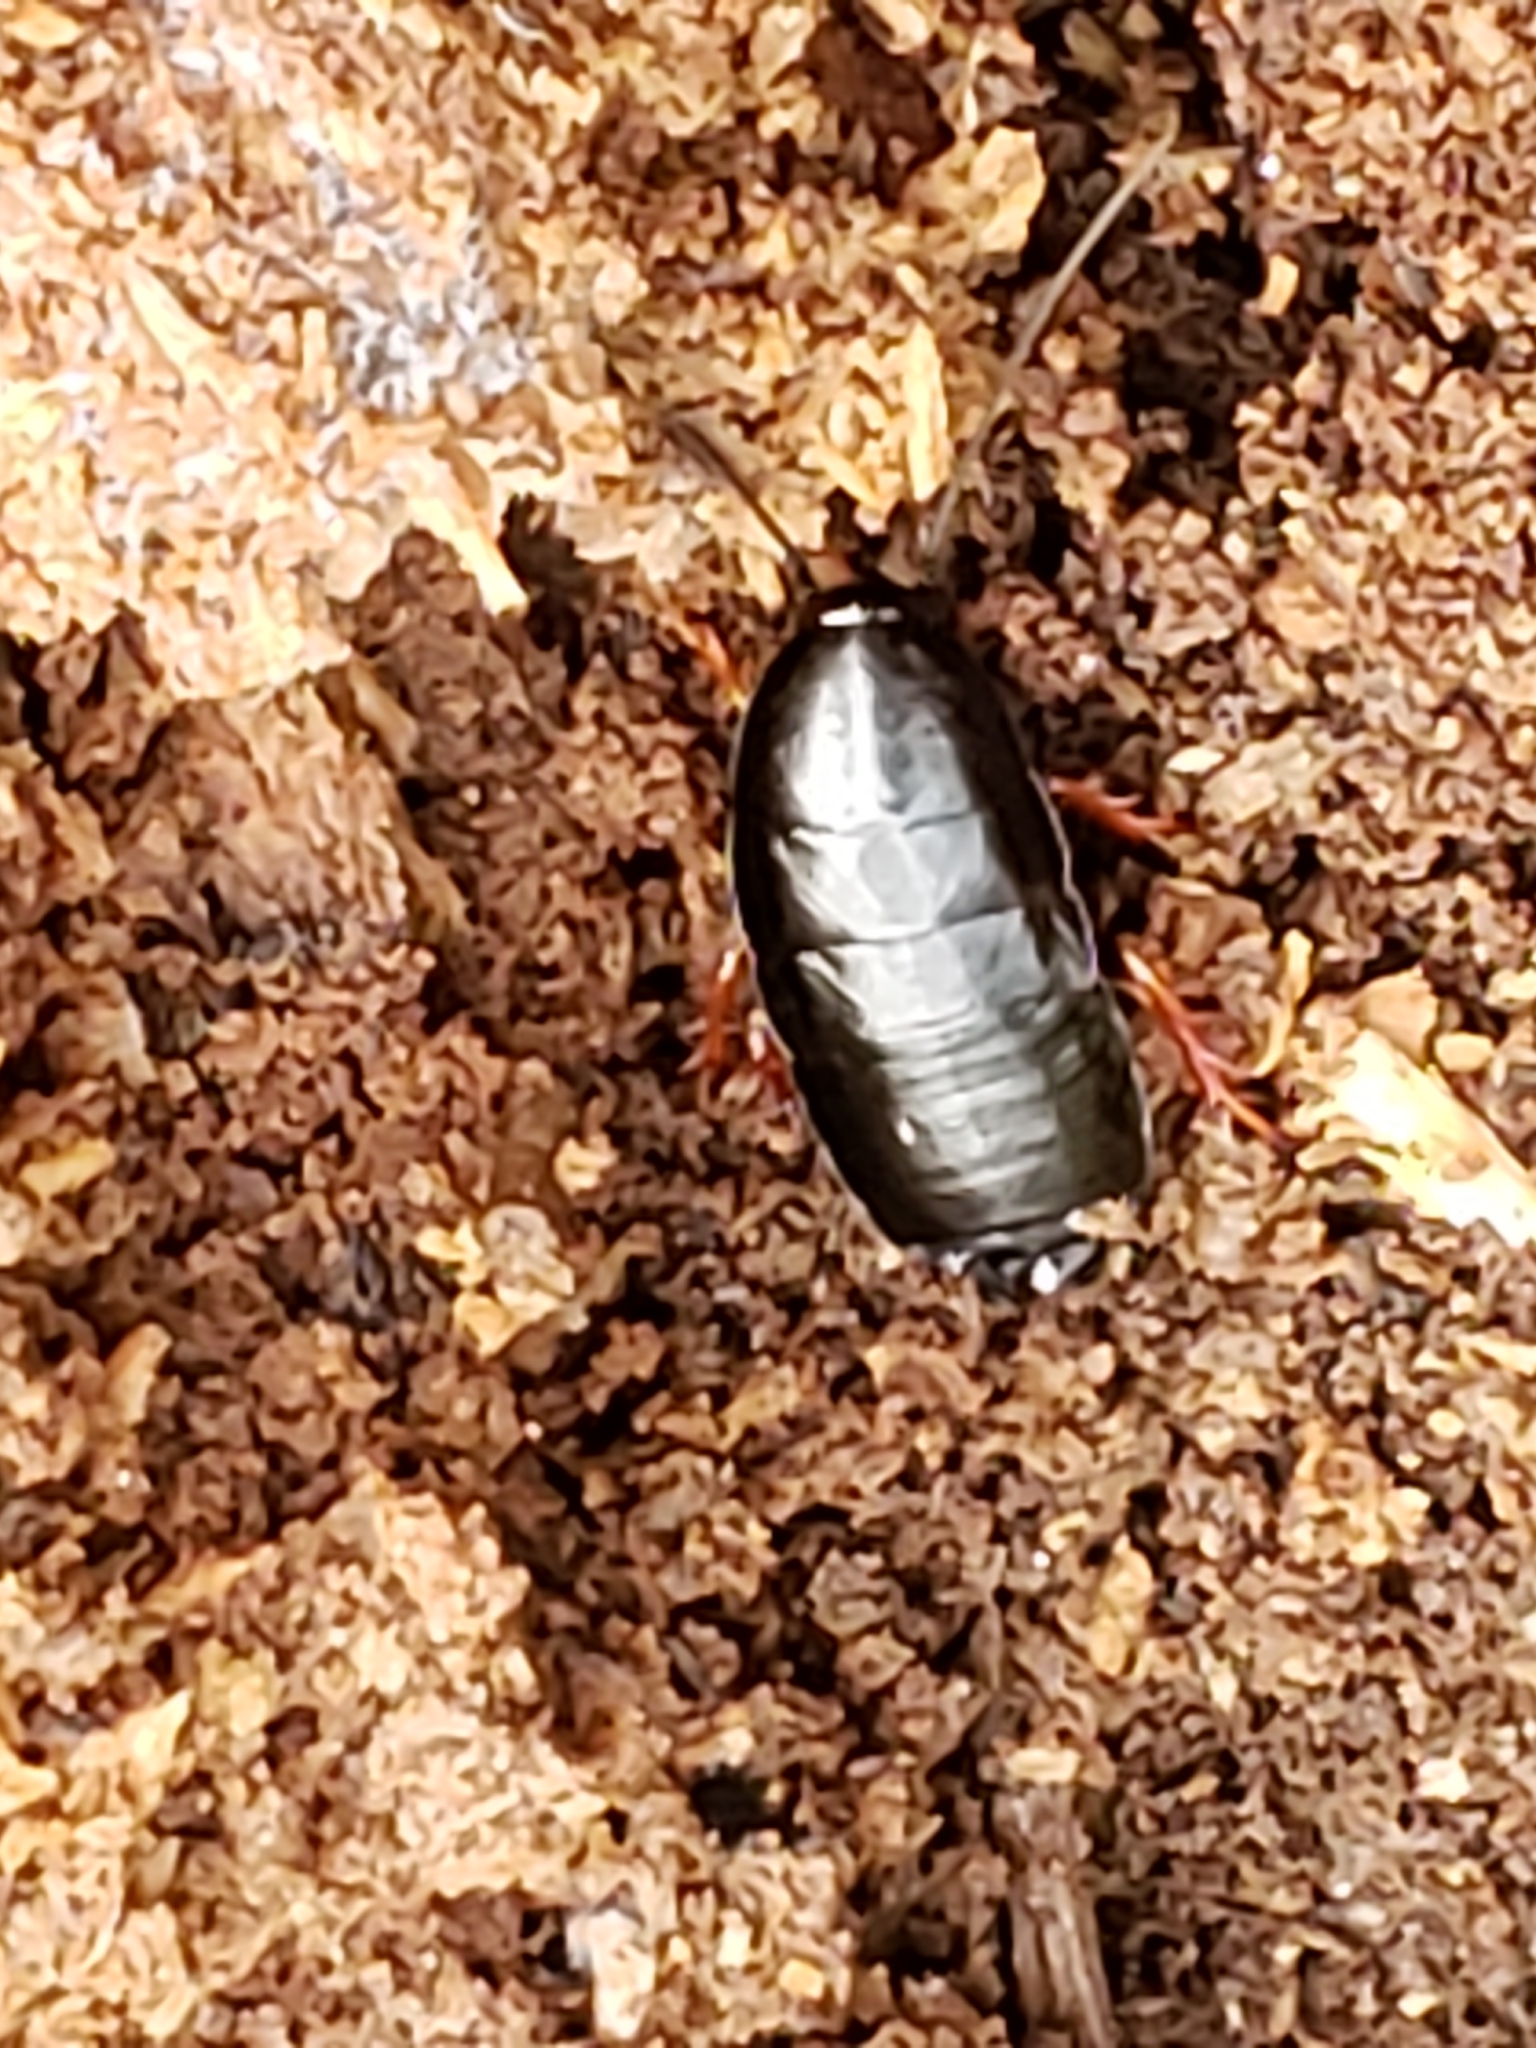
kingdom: Animalia
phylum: Arthropoda
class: Insecta
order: Blattodea
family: Ectobiidae
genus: Ischnoptera
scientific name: Ischnoptera deropeltiformis
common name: Dark wood cockroach
